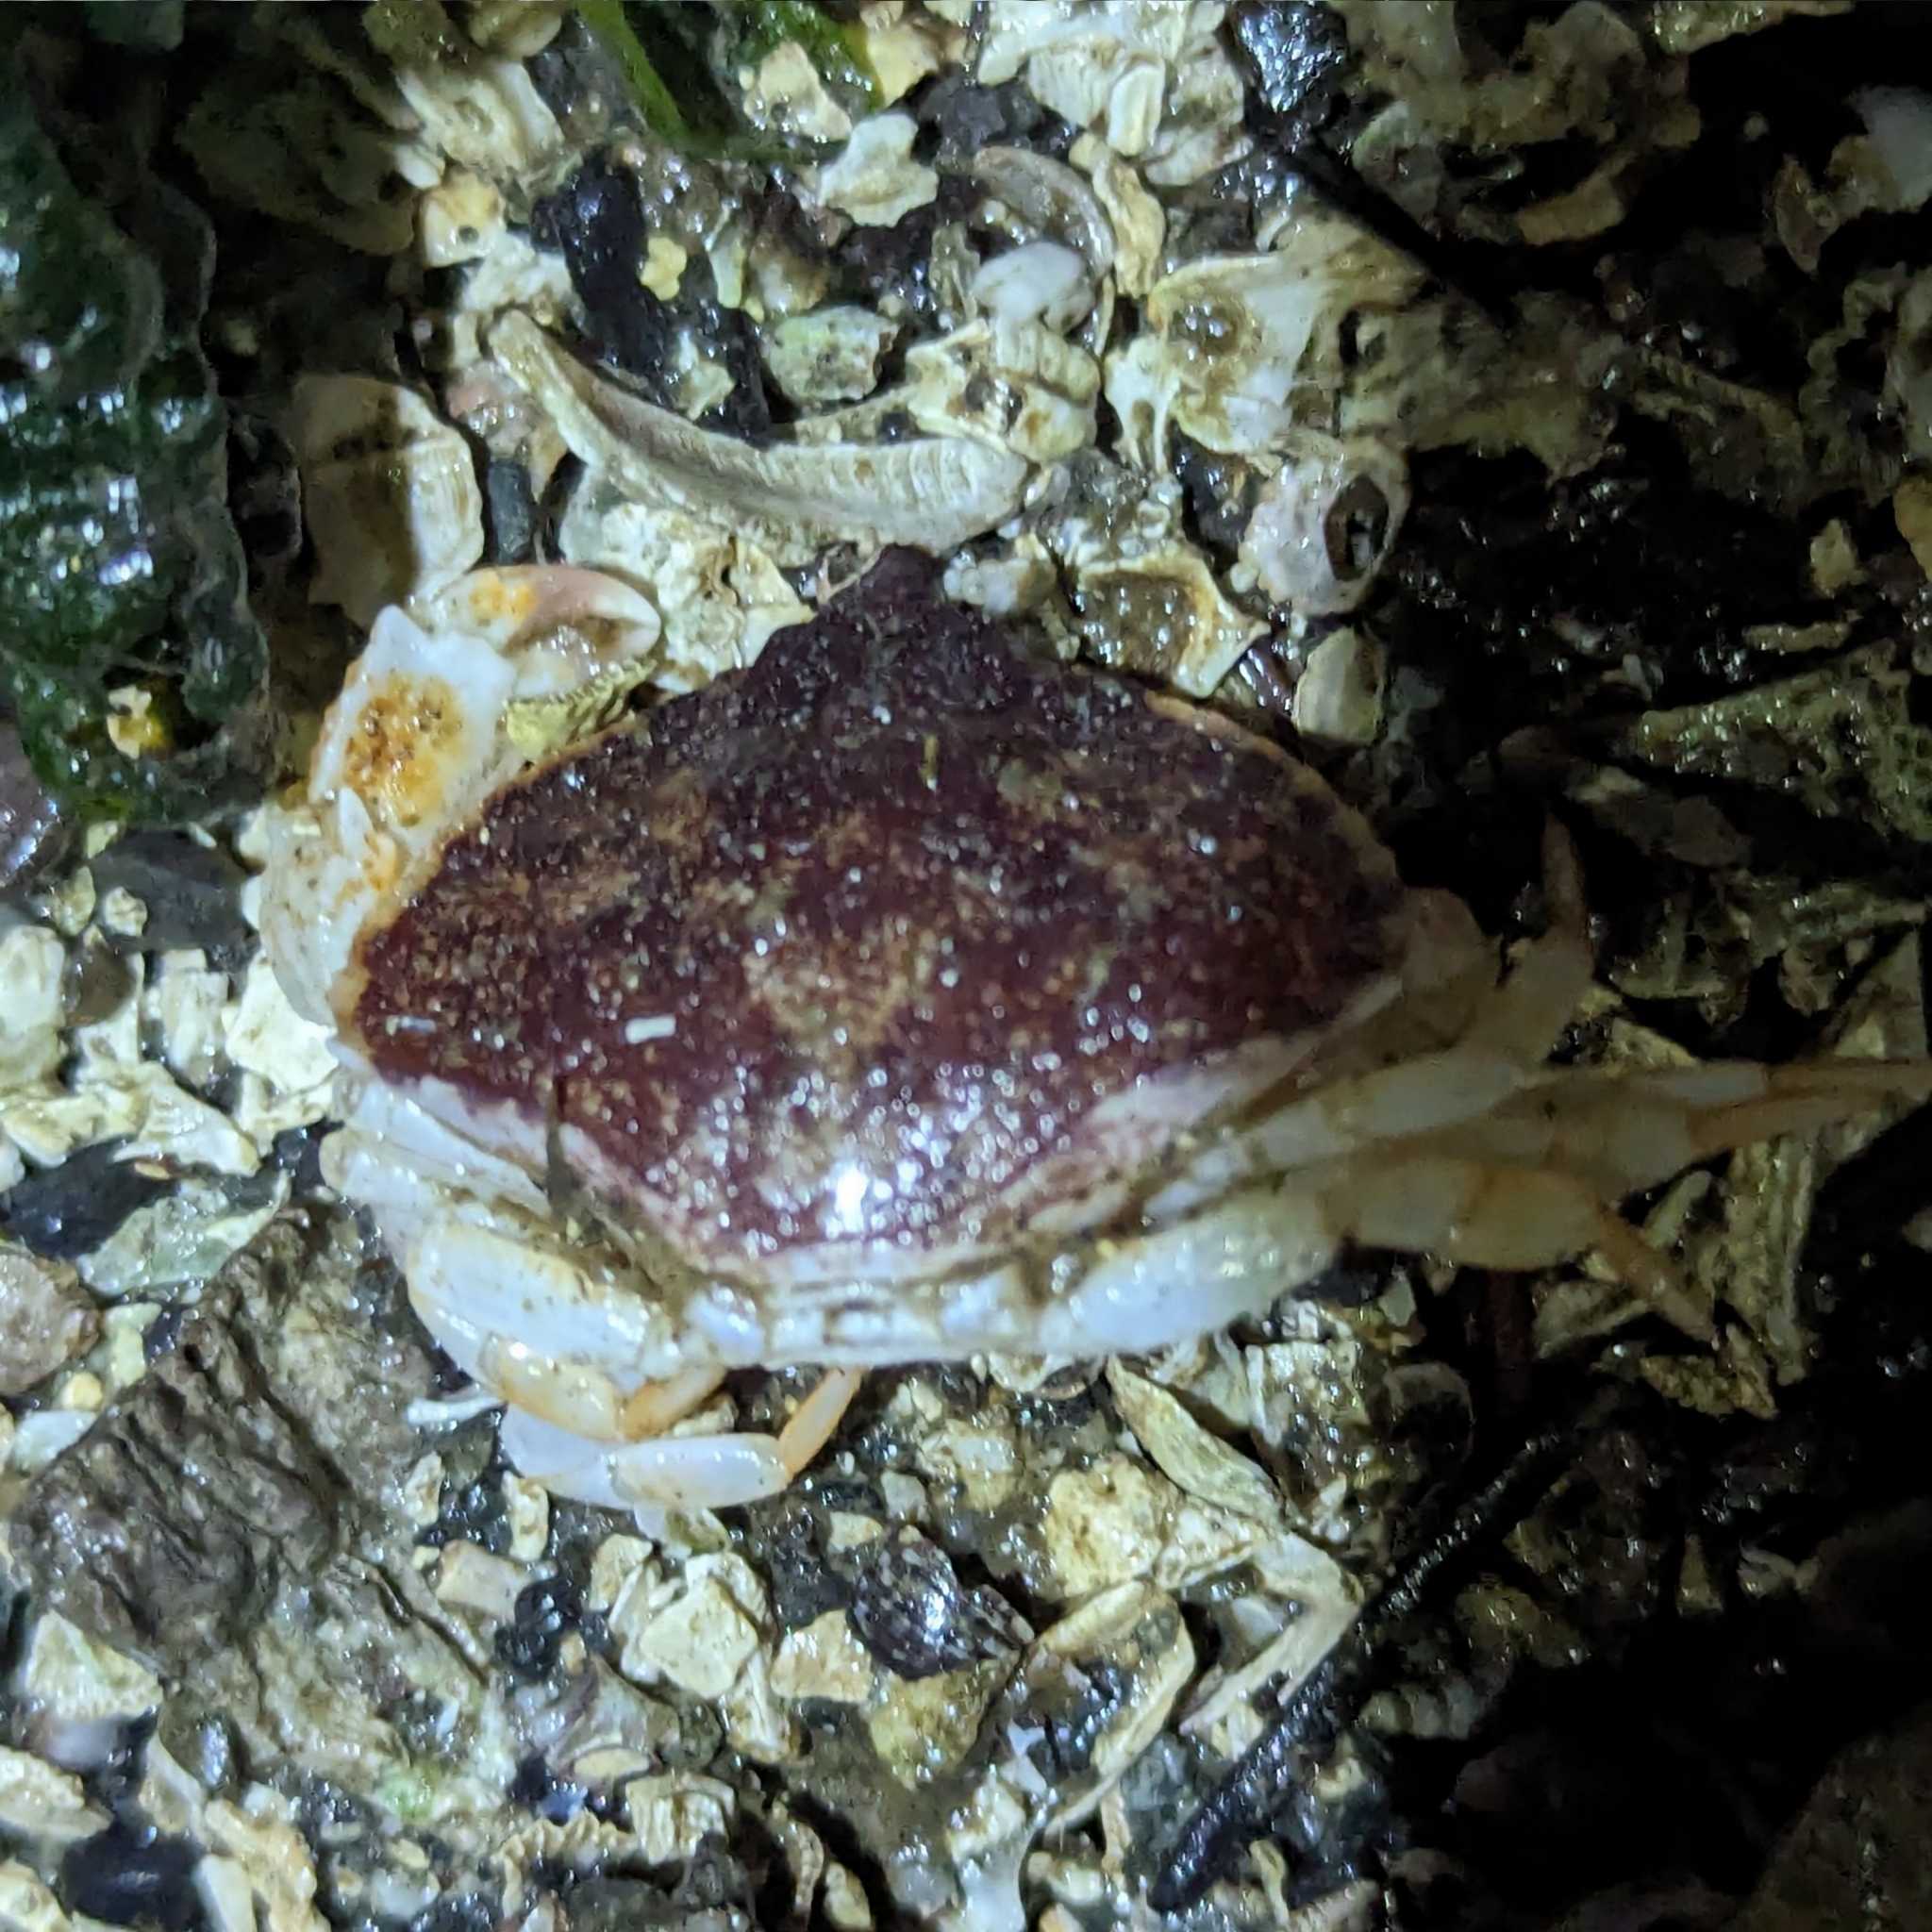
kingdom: Animalia
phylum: Arthropoda
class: Malacostraca
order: Decapoda
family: Cancridae
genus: Cancer
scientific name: Cancer productus
